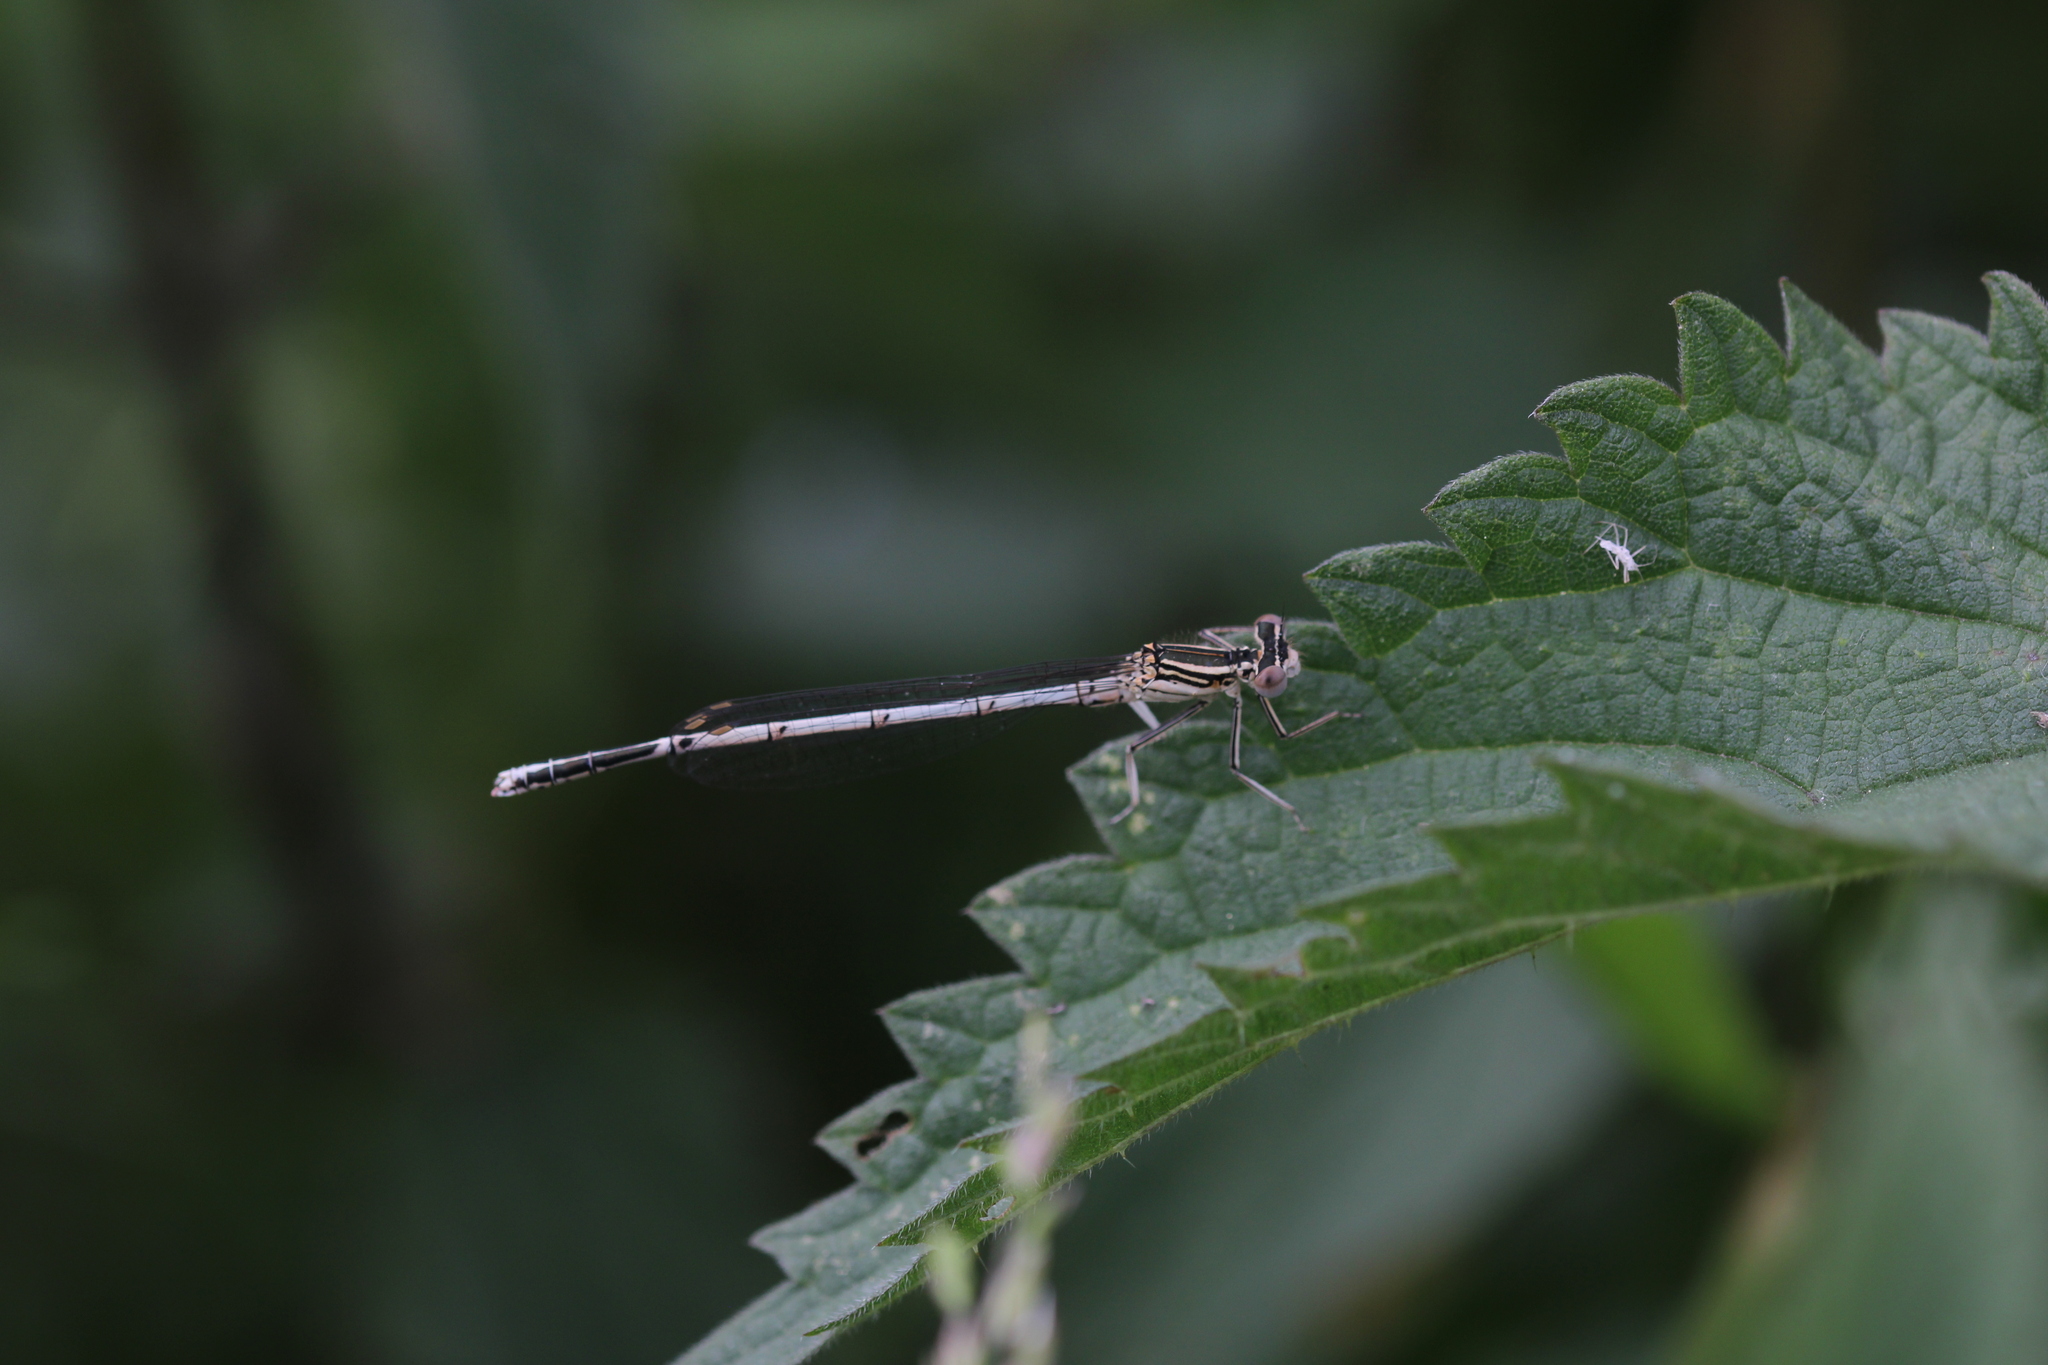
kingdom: Animalia
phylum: Arthropoda
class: Insecta
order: Odonata
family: Platycnemididae
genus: Platycnemis
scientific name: Platycnemis pennipes
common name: White-legged damselfly
